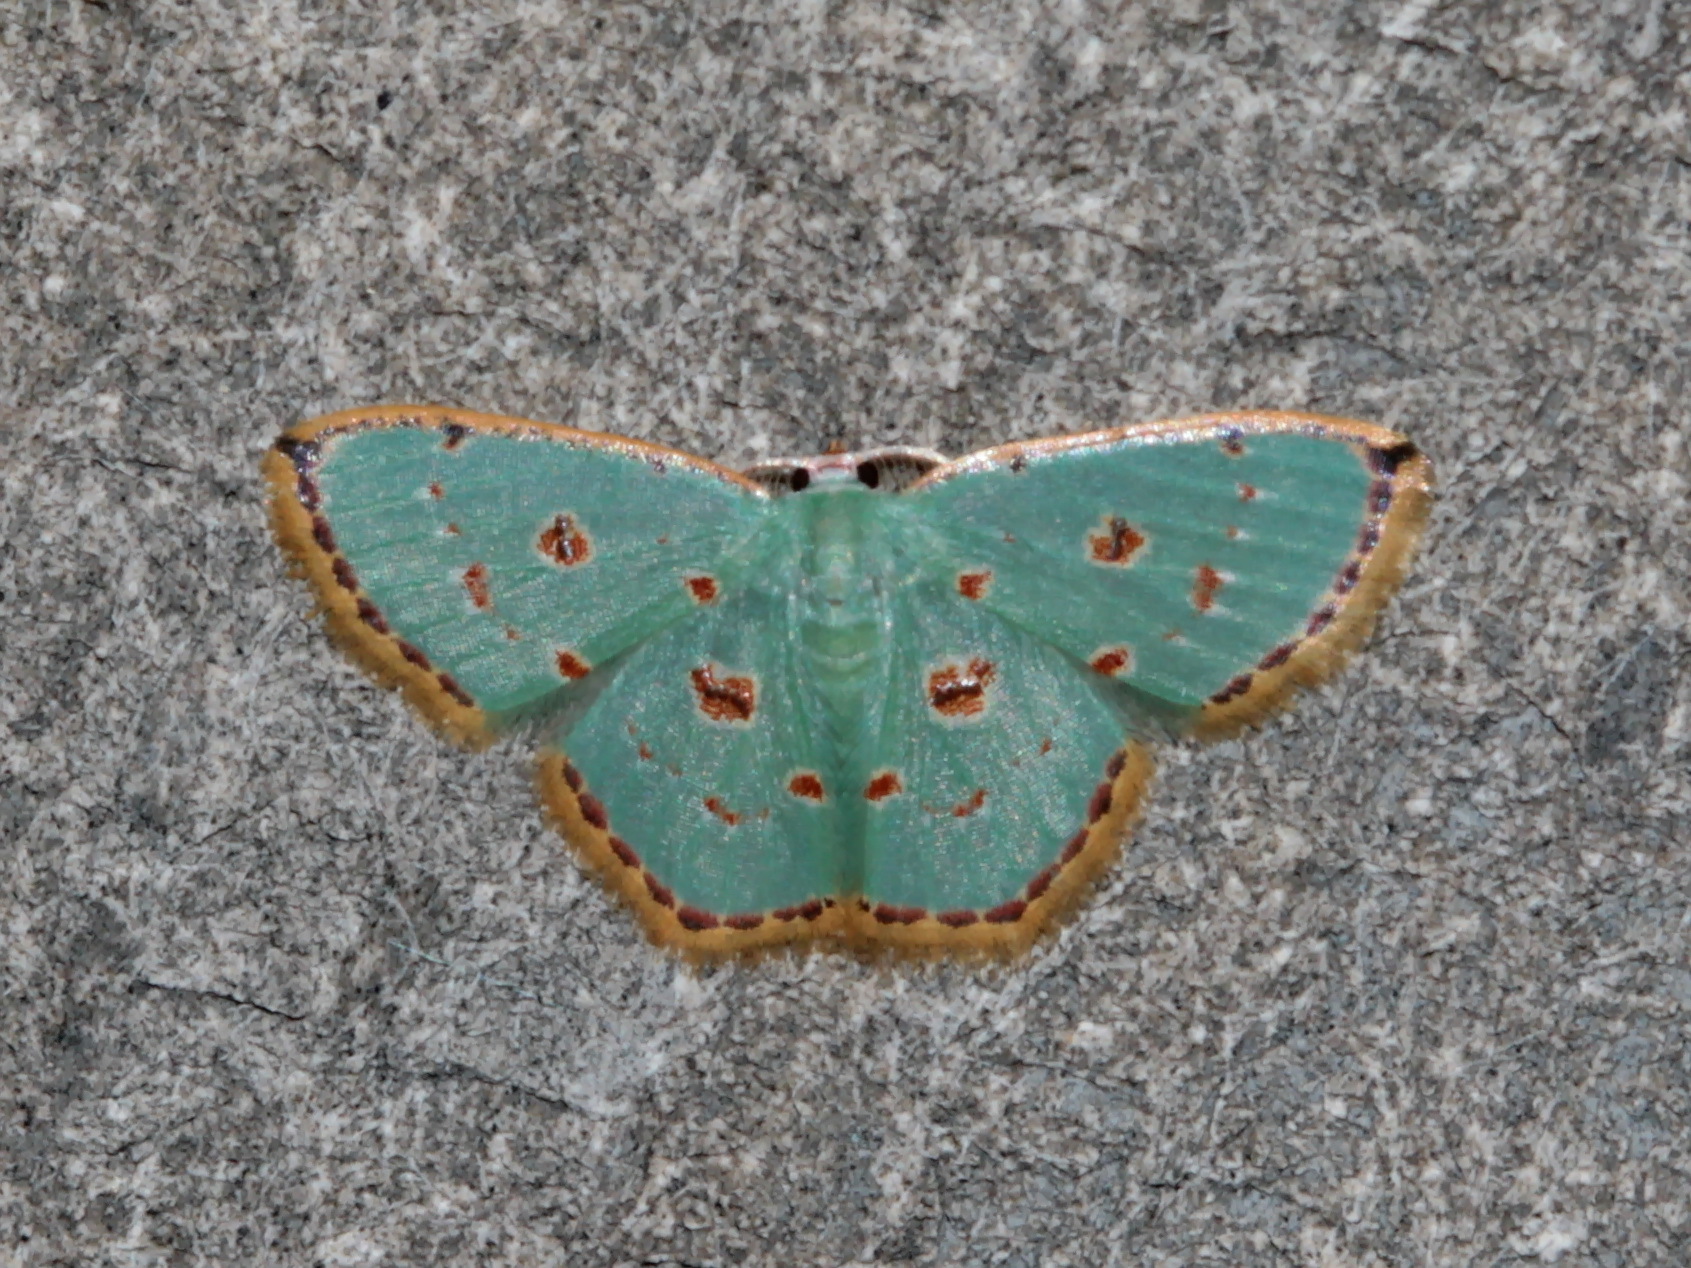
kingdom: Animalia
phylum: Arthropoda
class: Insecta
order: Lepidoptera
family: Geometridae
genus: Comostola
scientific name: Comostola laesaria
